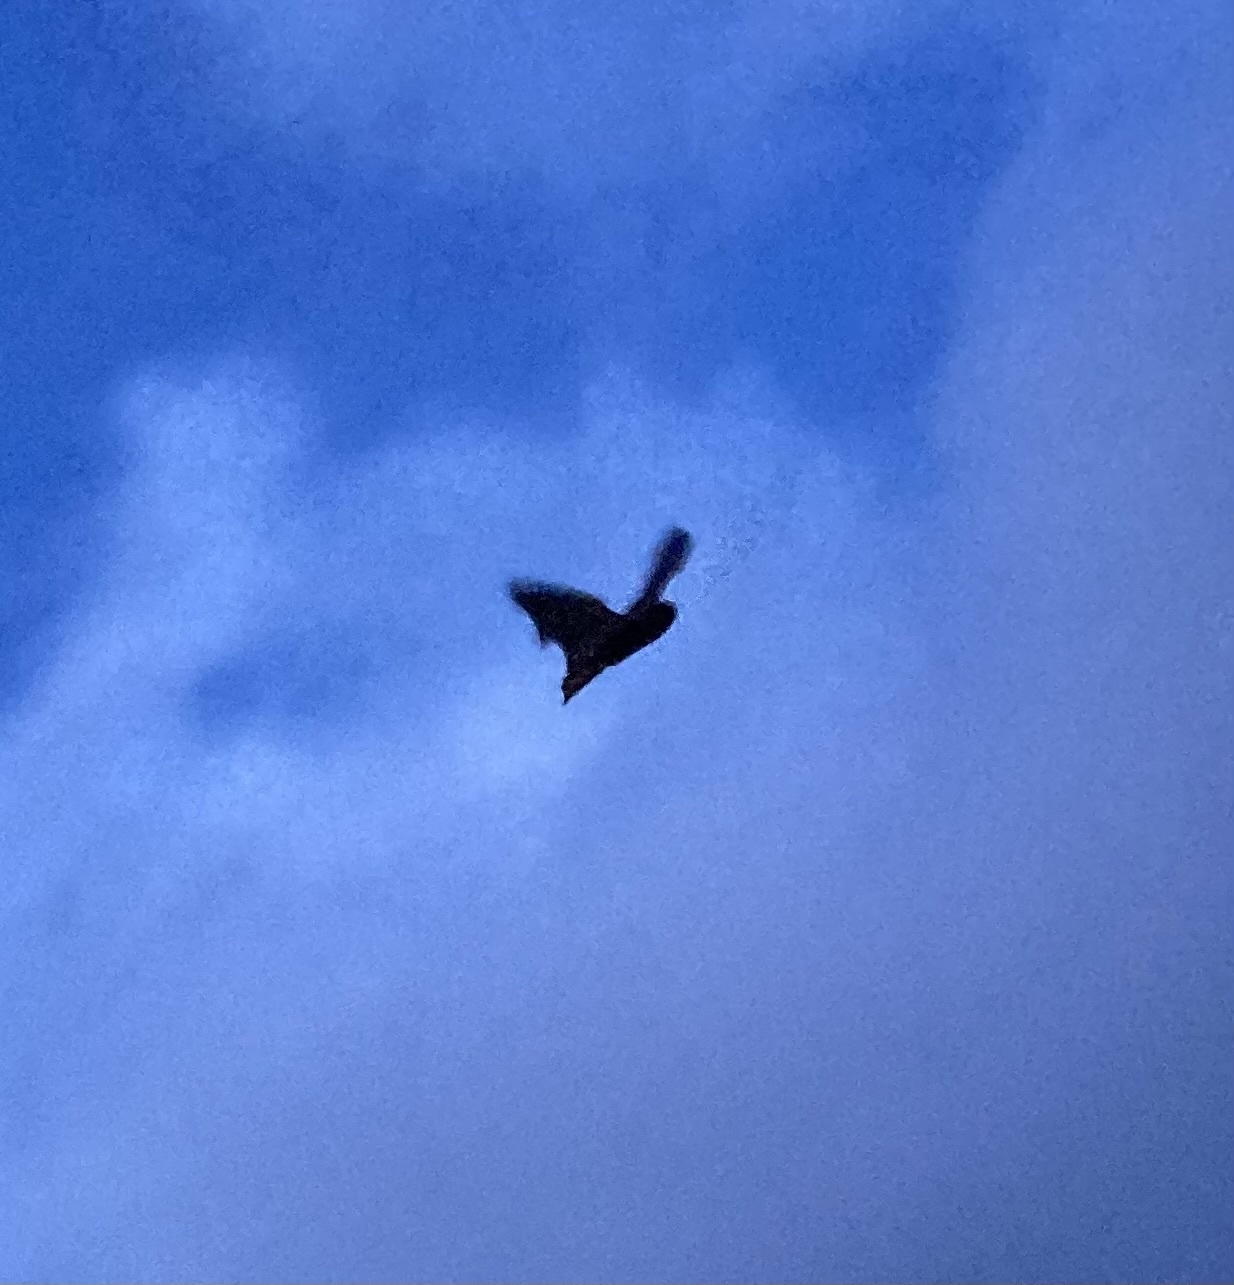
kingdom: Animalia
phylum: Chordata
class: Mammalia
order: Chiroptera
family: Vespertilionidae
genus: Lasiurus
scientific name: Lasiurus
